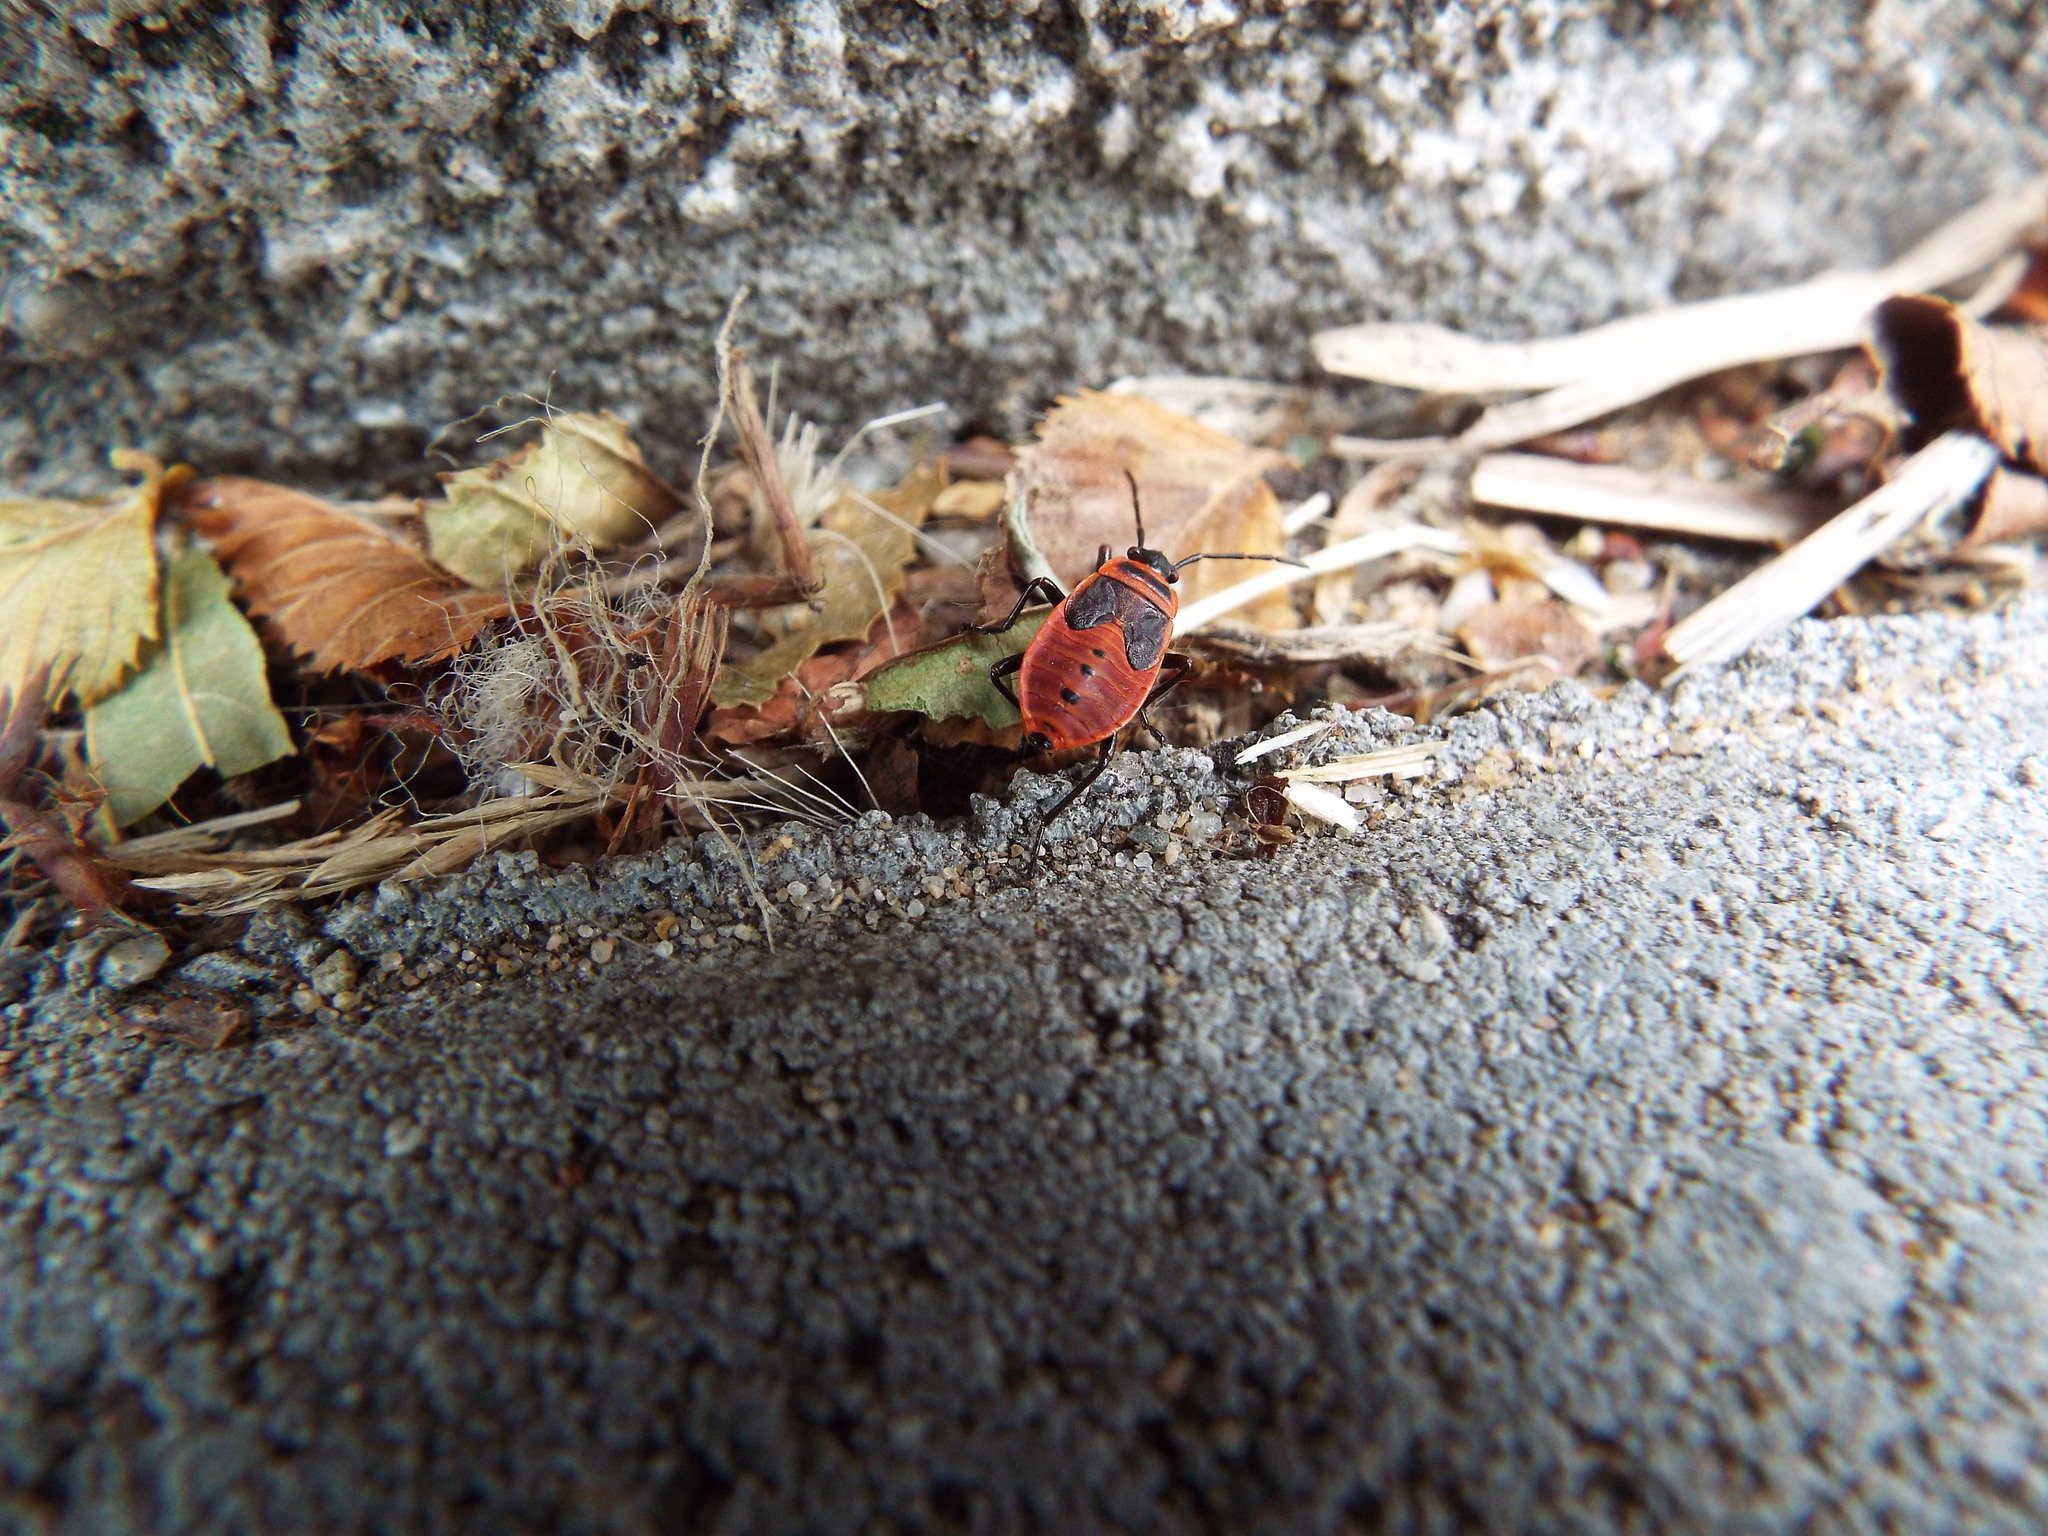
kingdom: Animalia
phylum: Arthropoda
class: Insecta
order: Hemiptera
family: Pyrrhocoridae
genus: Pyrrhocoris
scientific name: Pyrrhocoris apterus
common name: Firebug
